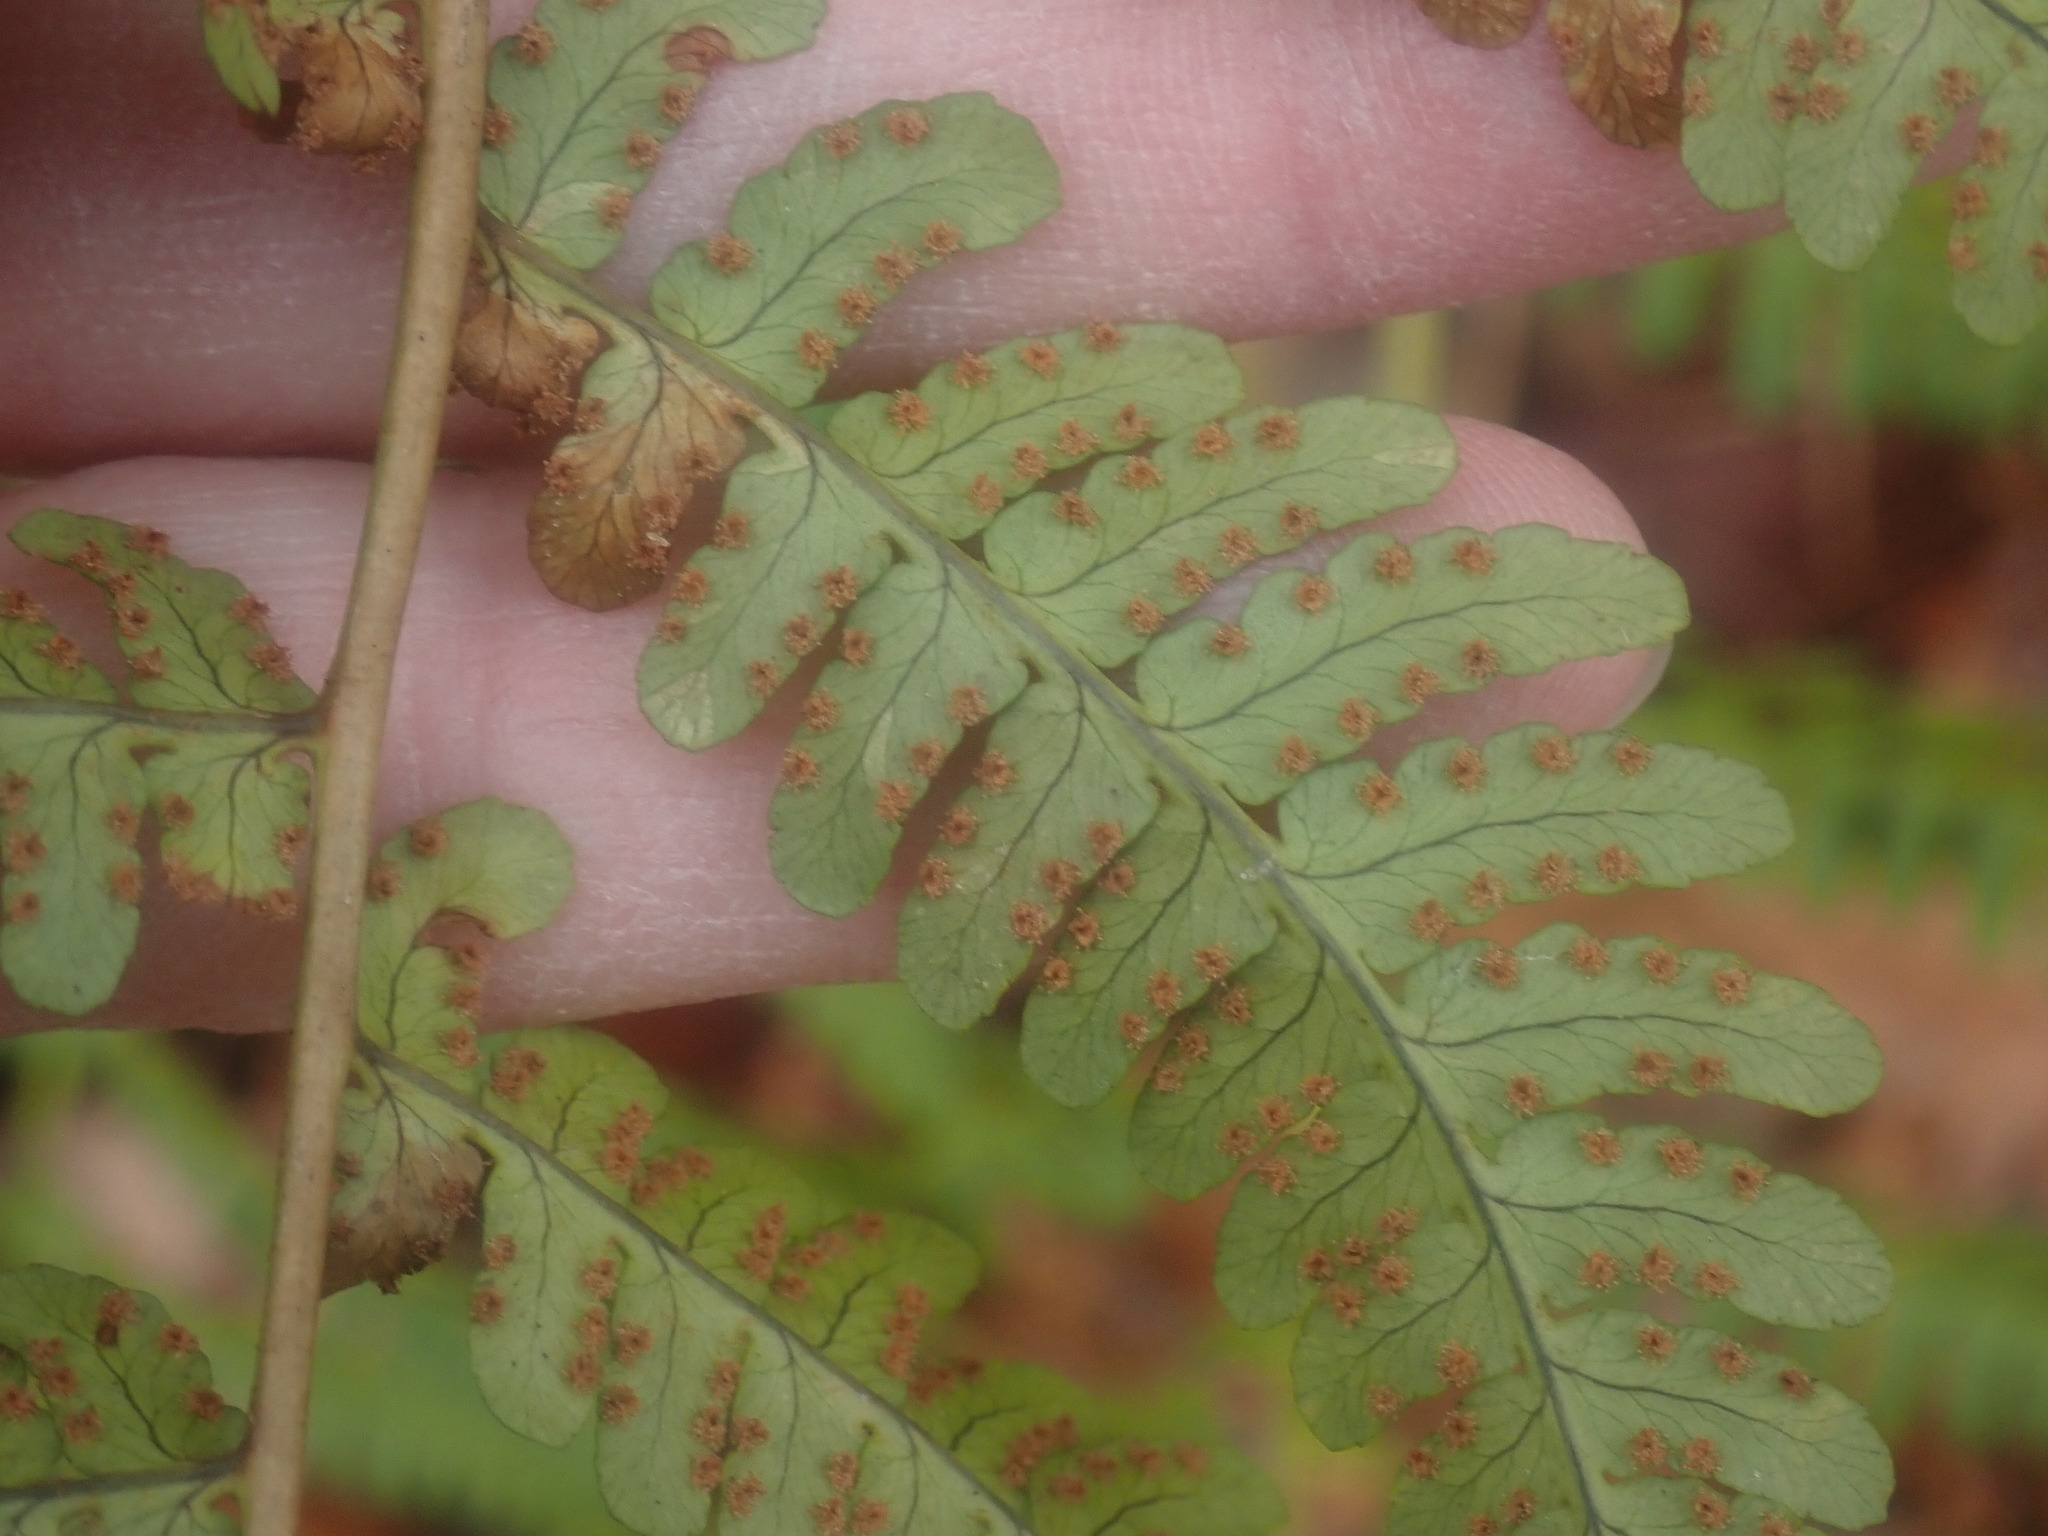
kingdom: Plantae
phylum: Tracheophyta
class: Polypodiopsida
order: Polypodiales
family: Dryopteridaceae
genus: Dryopteris
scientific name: Dryopteris marginalis
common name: Marginal wood fern
